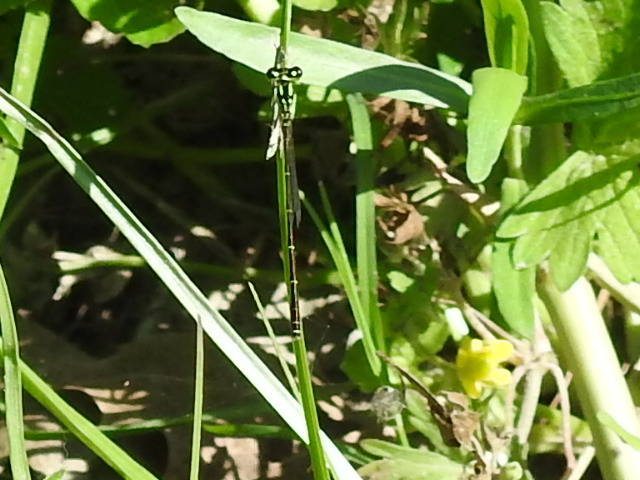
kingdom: Animalia
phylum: Arthropoda
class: Insecta
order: Odonata
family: Coenagrionidae
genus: Ischnura
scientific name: Ischnura posita
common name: Fragile forktail
